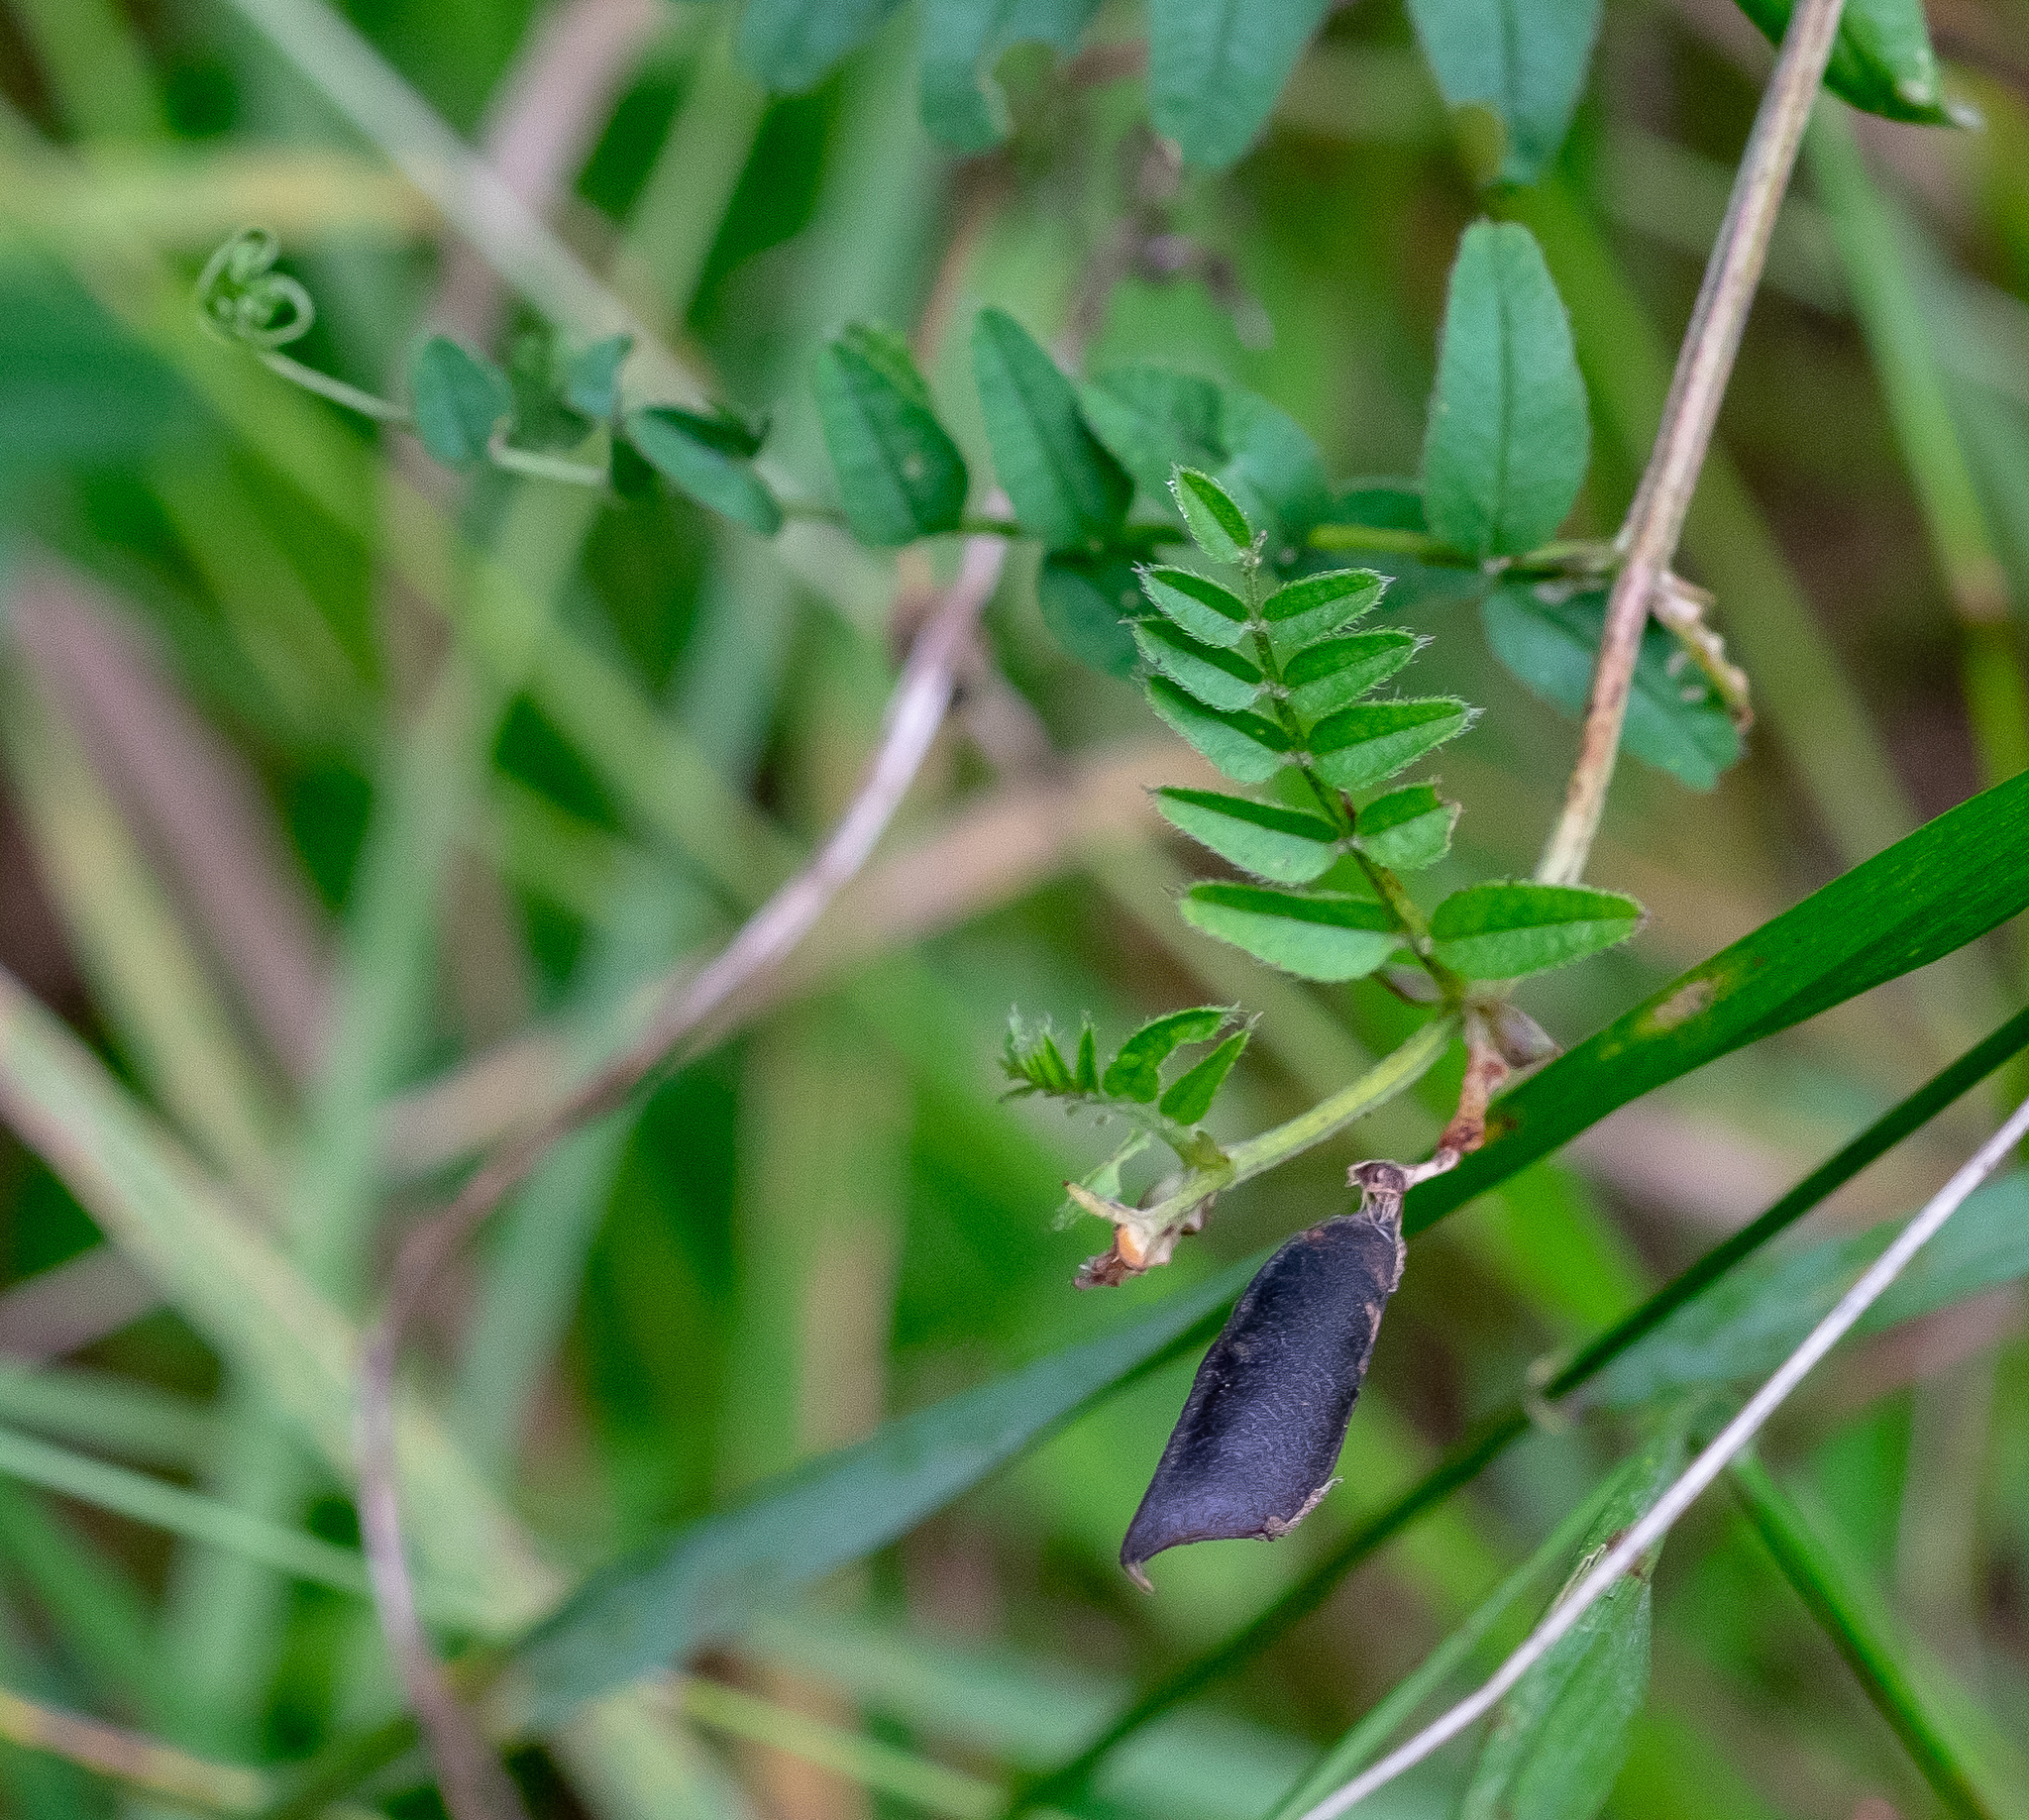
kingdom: Plantae
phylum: Tracheophyta
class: Magnoliopsida
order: Fabales
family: Fabaceae
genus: Vicia
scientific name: Vicia sepium
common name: Bush vetch
